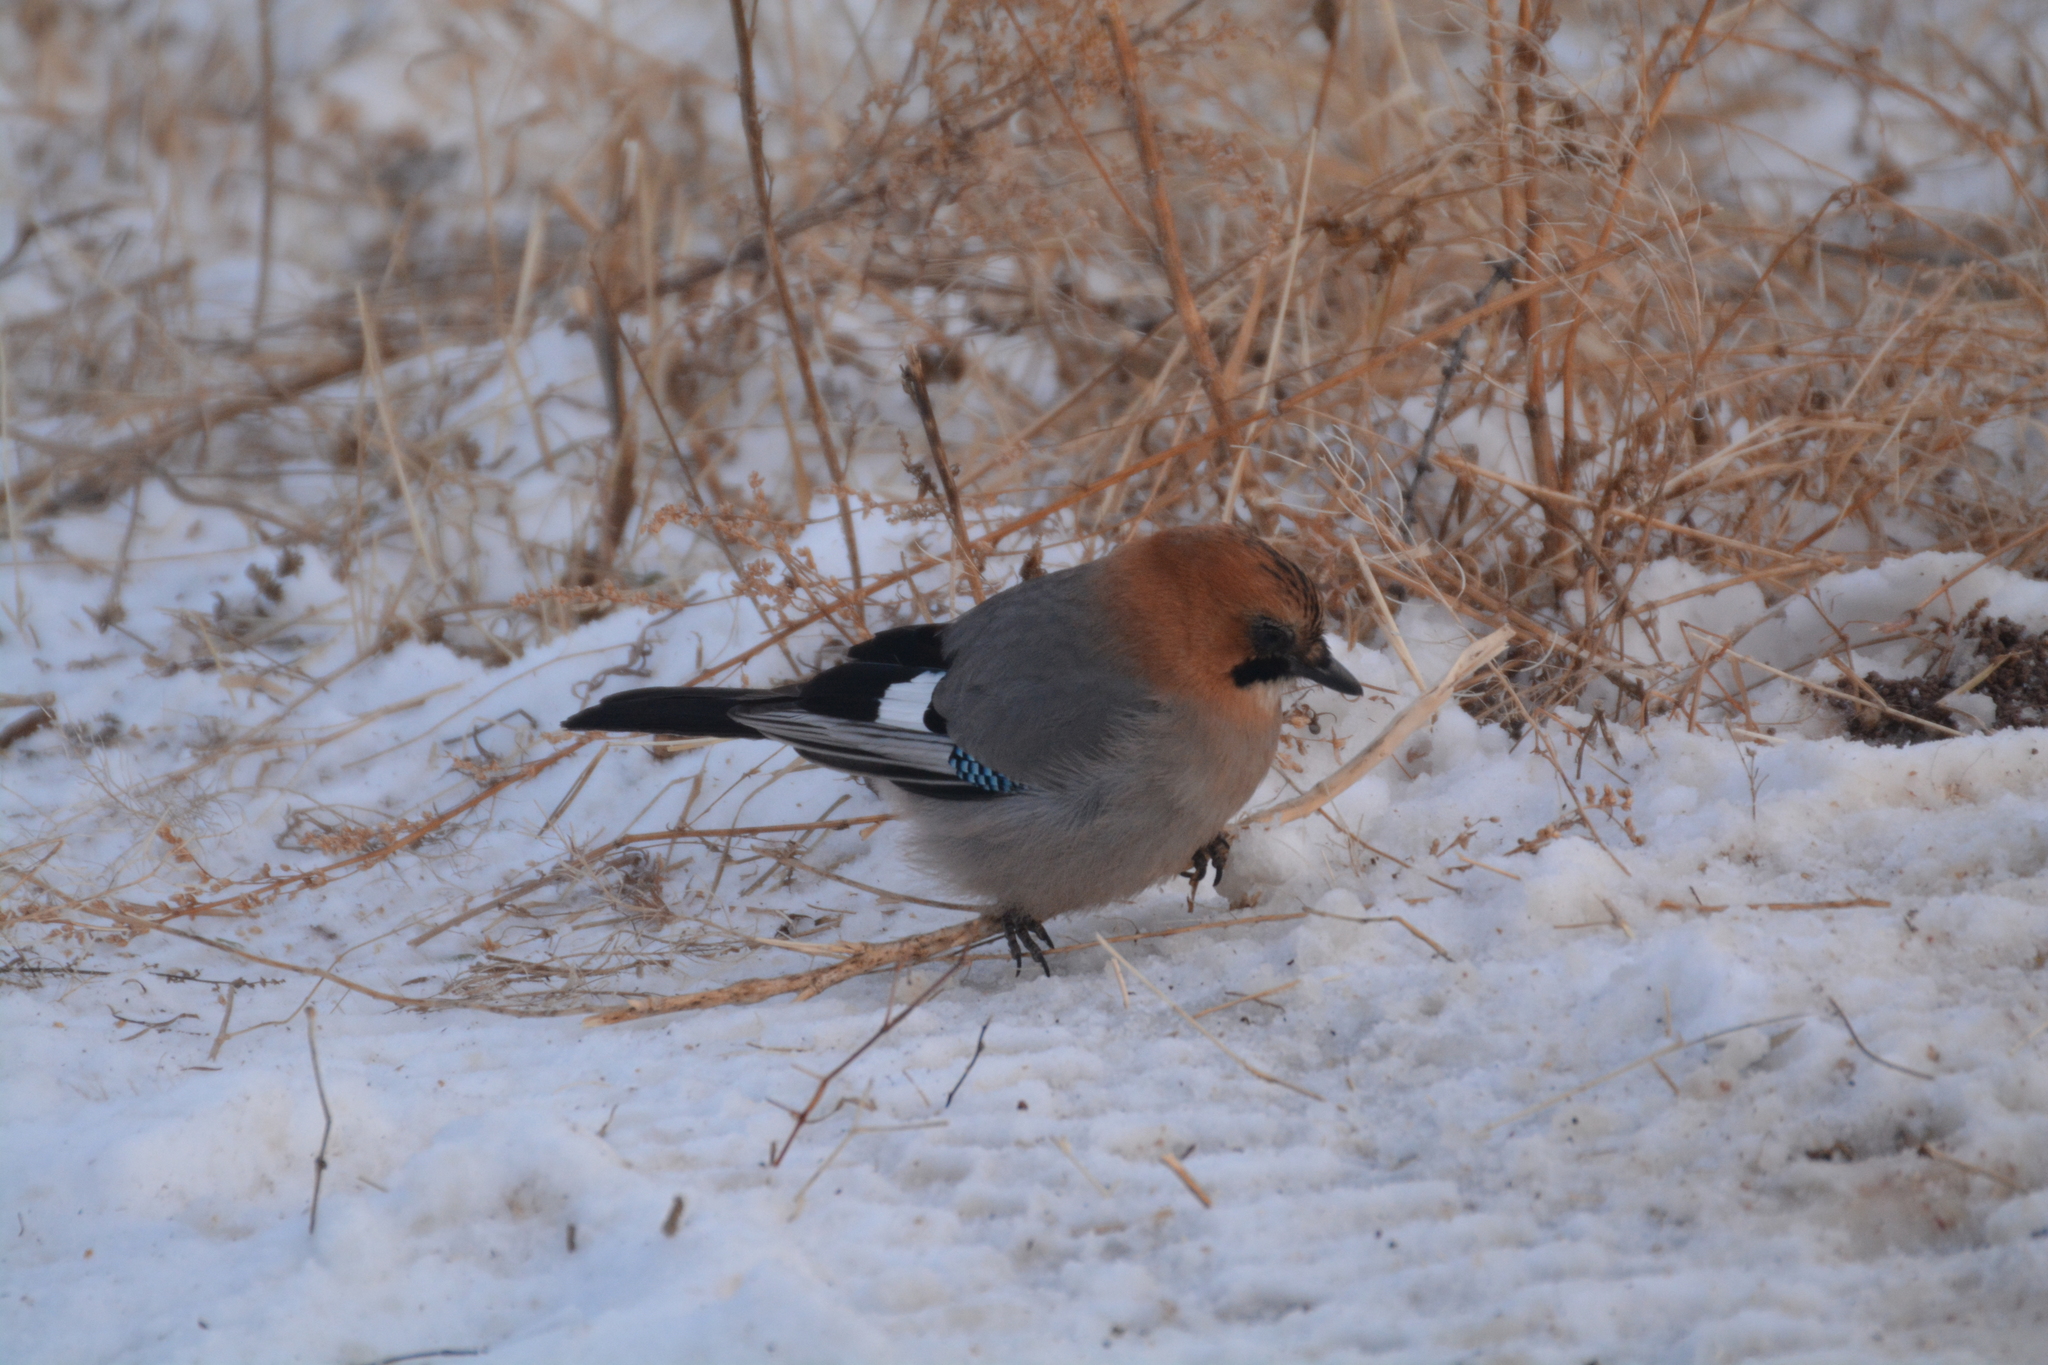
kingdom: Animalia
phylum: Chordata
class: Aves
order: Passeriformes
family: Corvidae
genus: Garrulus
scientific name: Garrulus glandarius
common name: Eurasian jay
